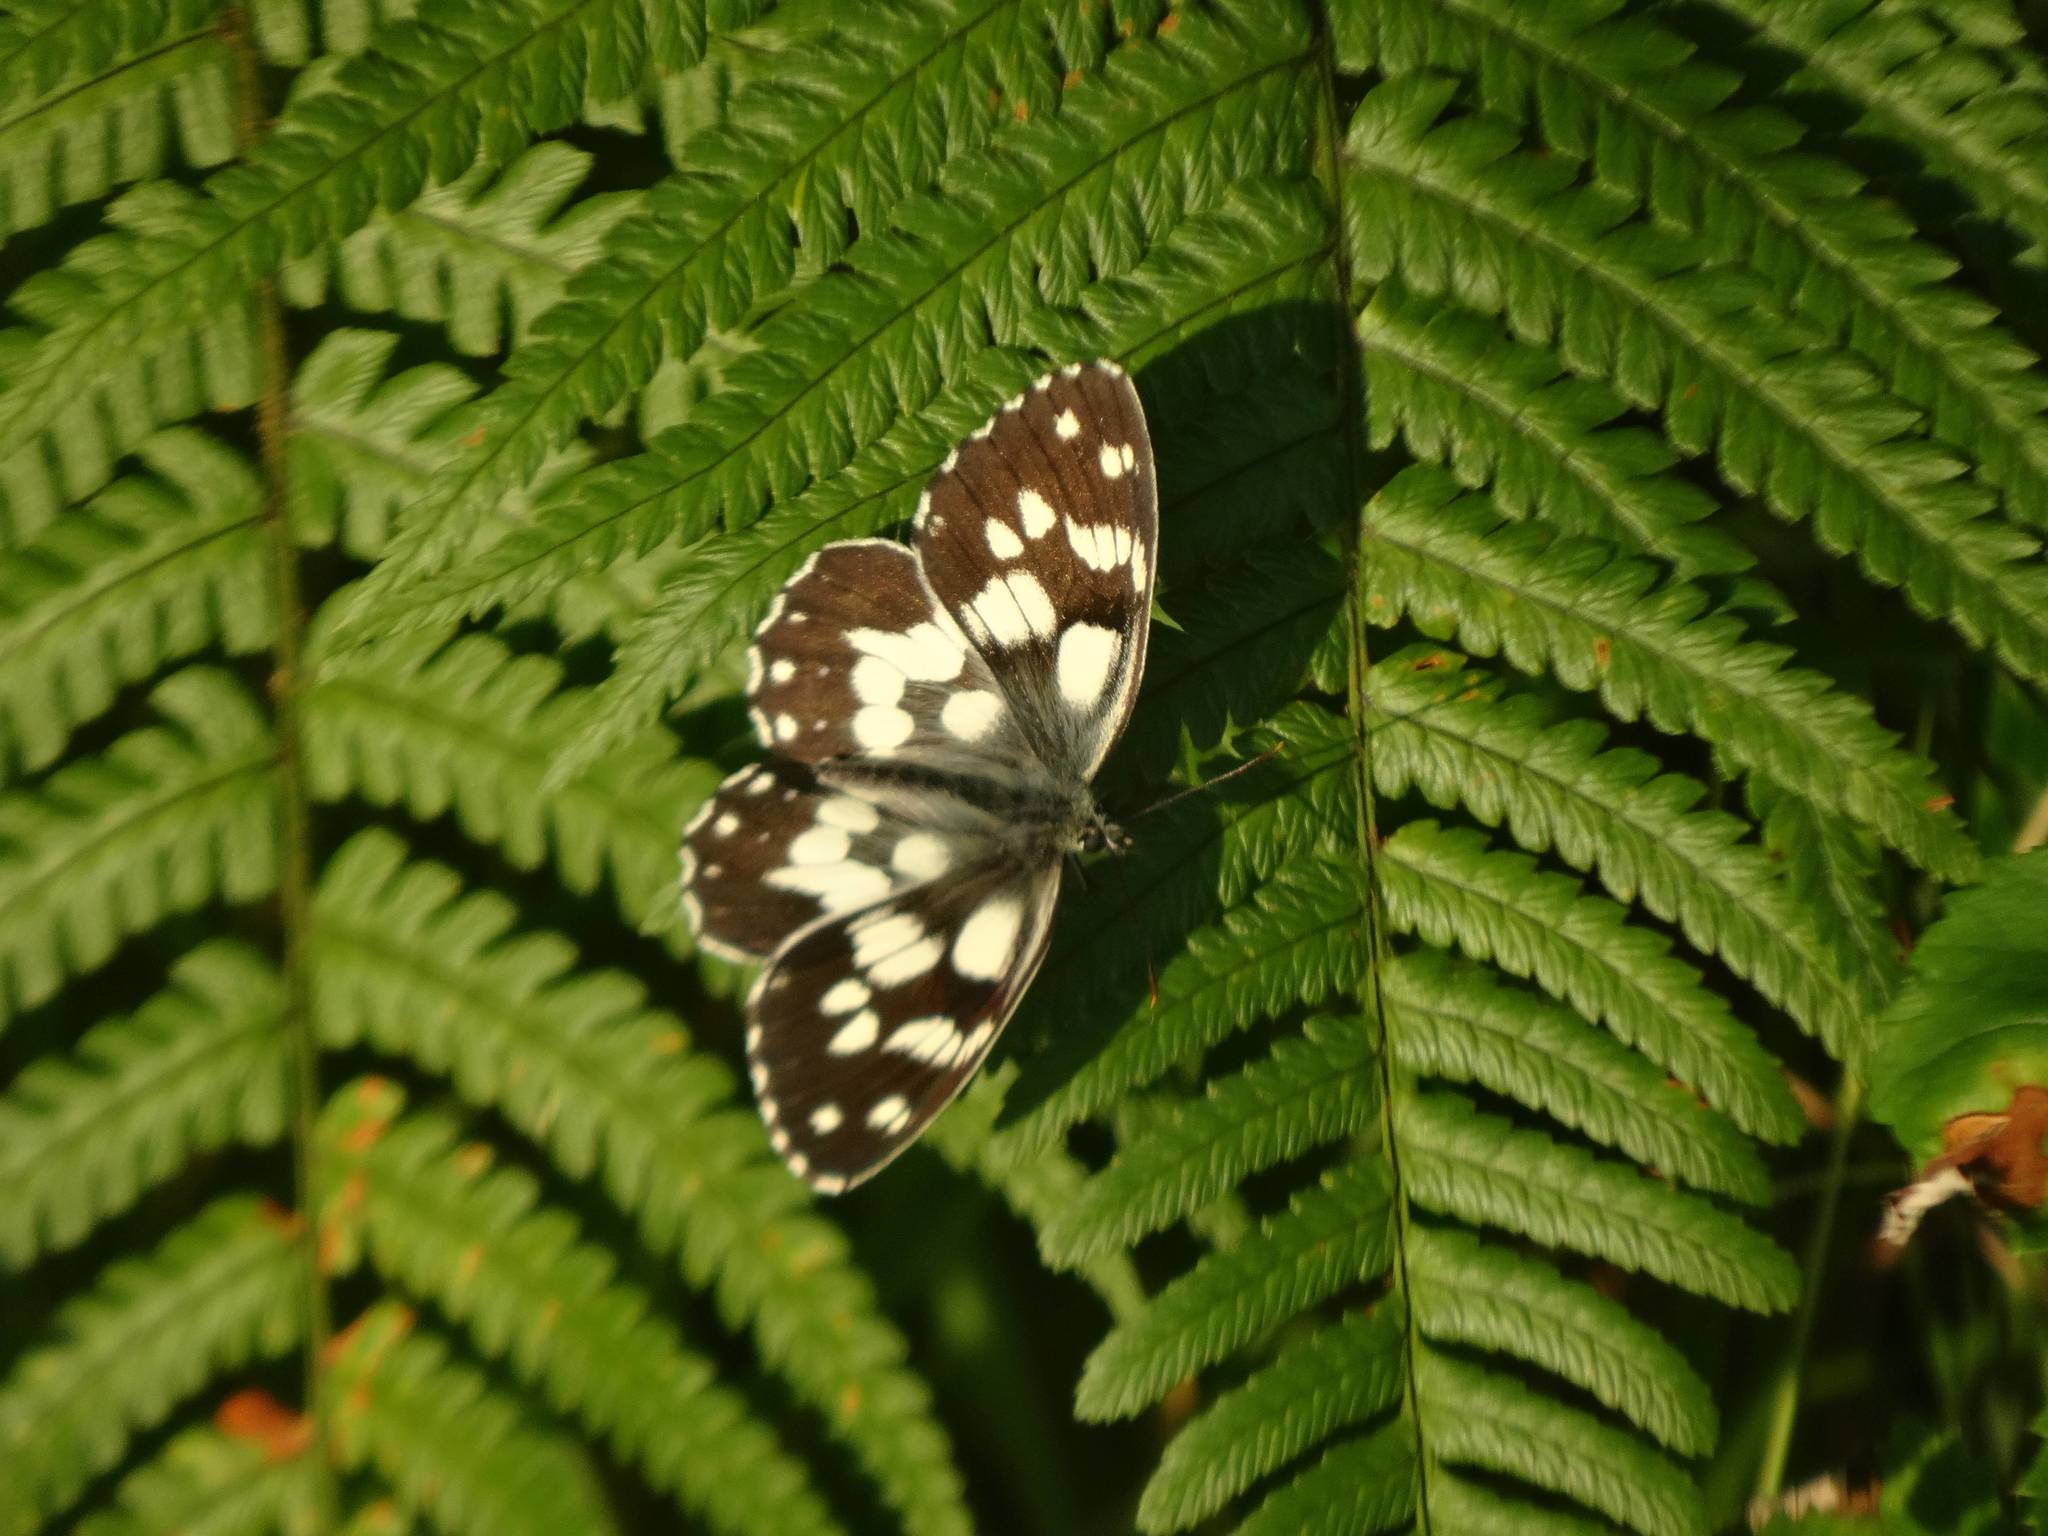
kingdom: Animalia
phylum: Arthropoda
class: Insecta
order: Lepidoptera
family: Nymphalidae
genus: Melanargia
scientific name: Melanargia galathea
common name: Marbled white
